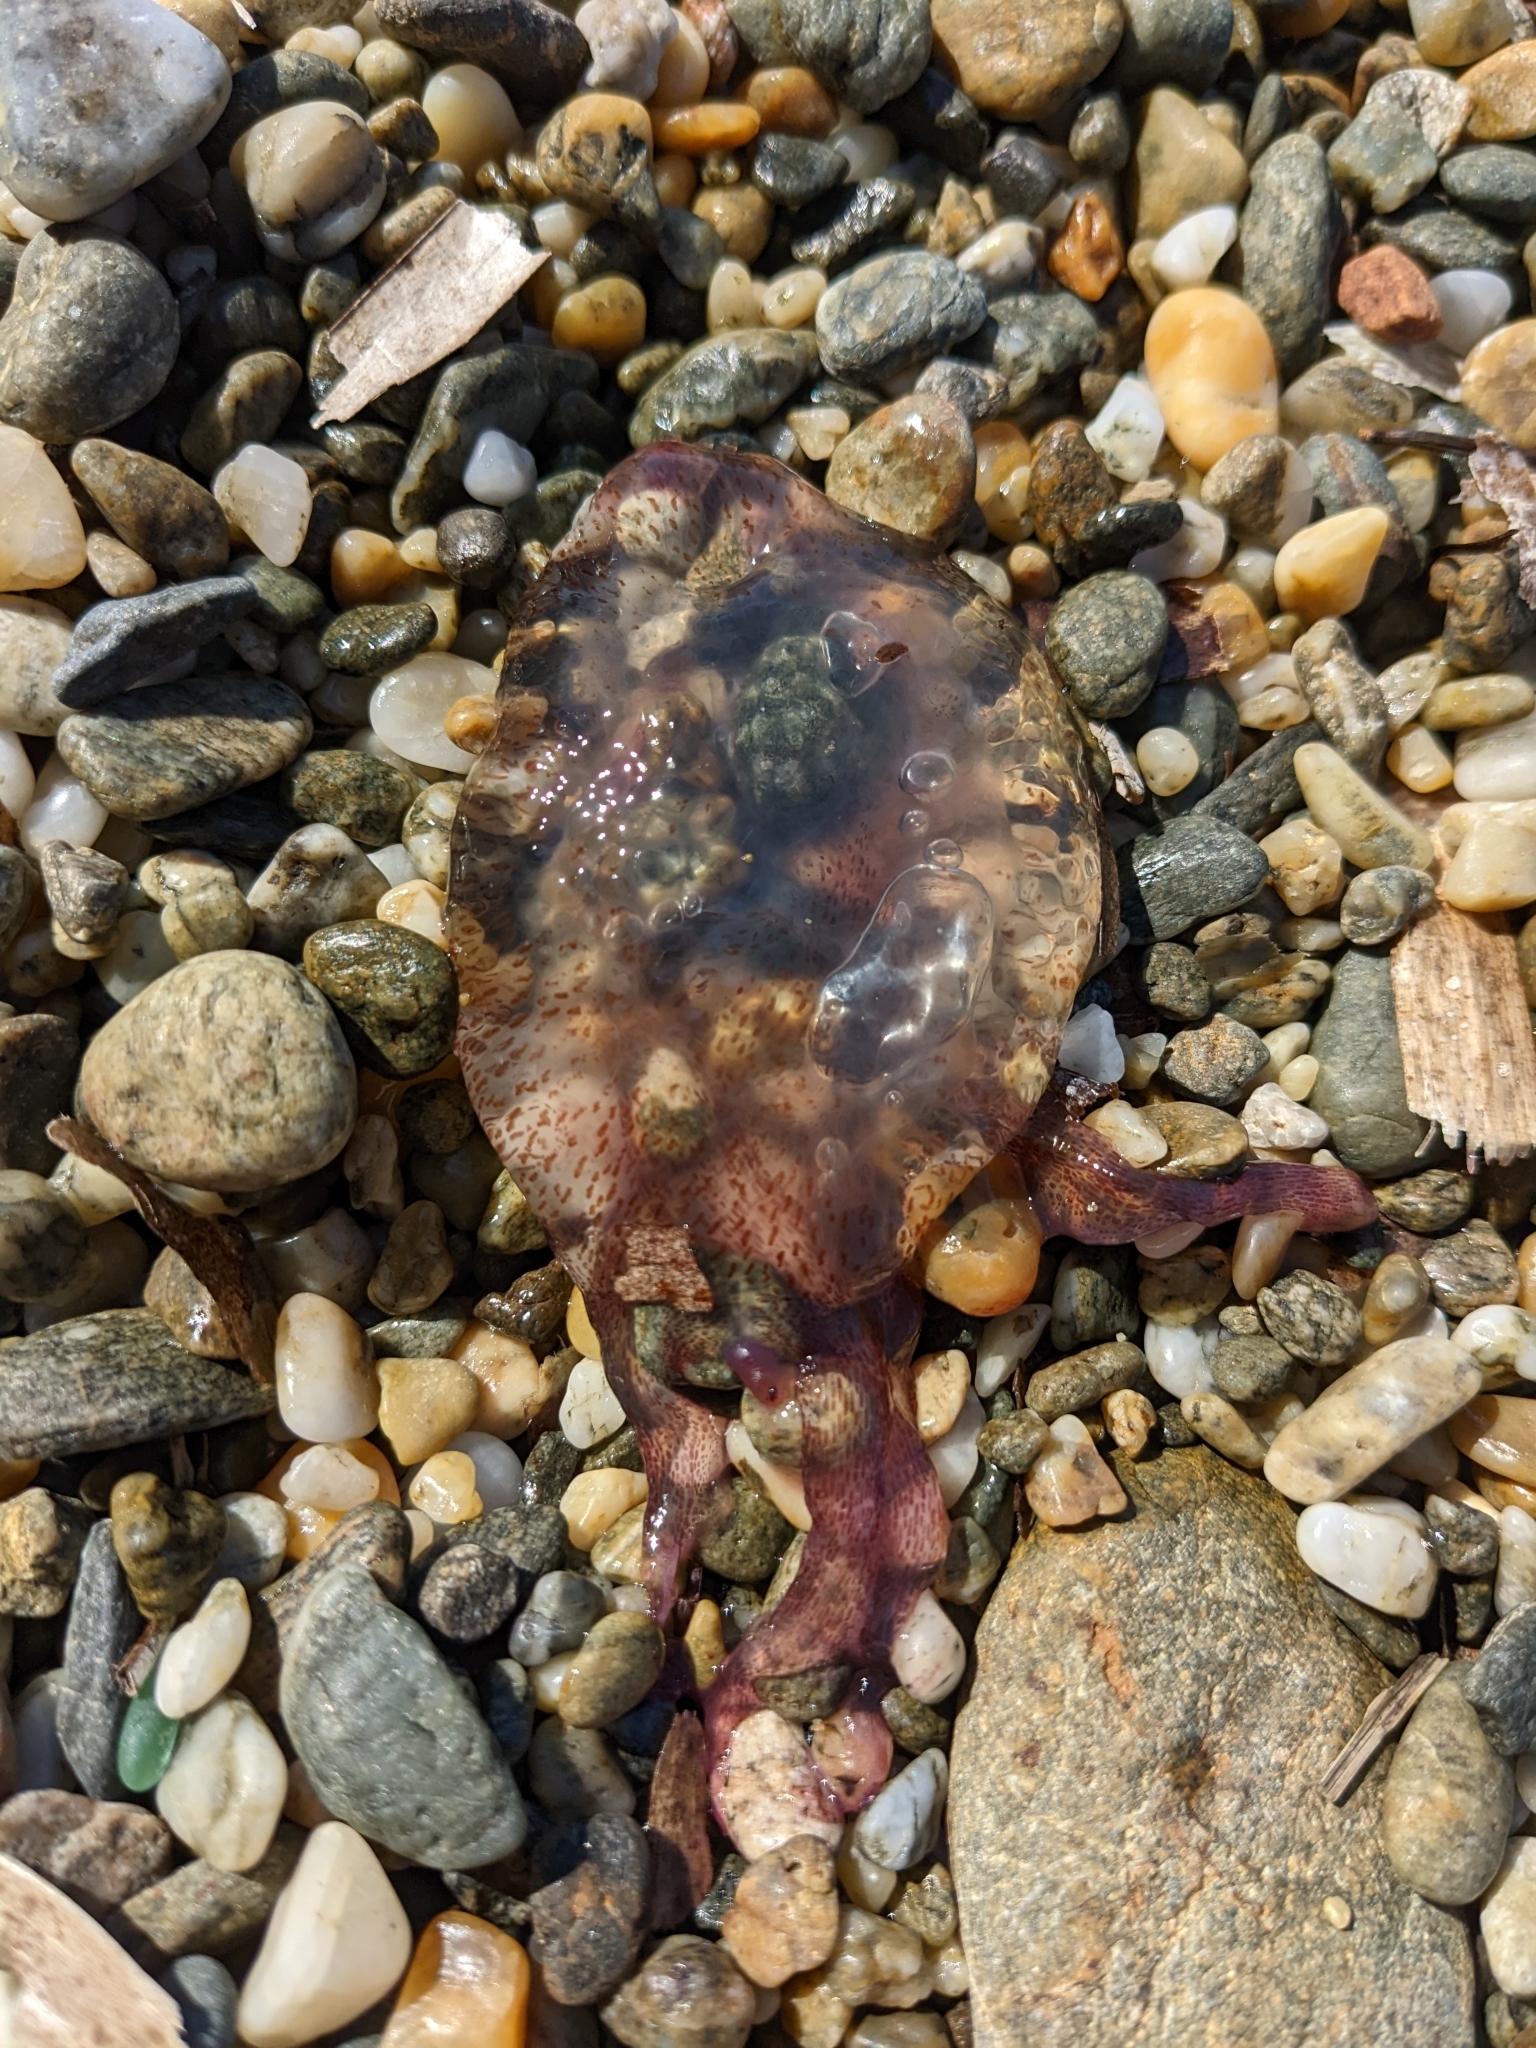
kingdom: Animalia
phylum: Cnidaria
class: Scyphozoa
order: Semaeostomeae
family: Pelagiidae
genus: Pelagia
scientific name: Pelagia noctiluca
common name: Mauve stinger
